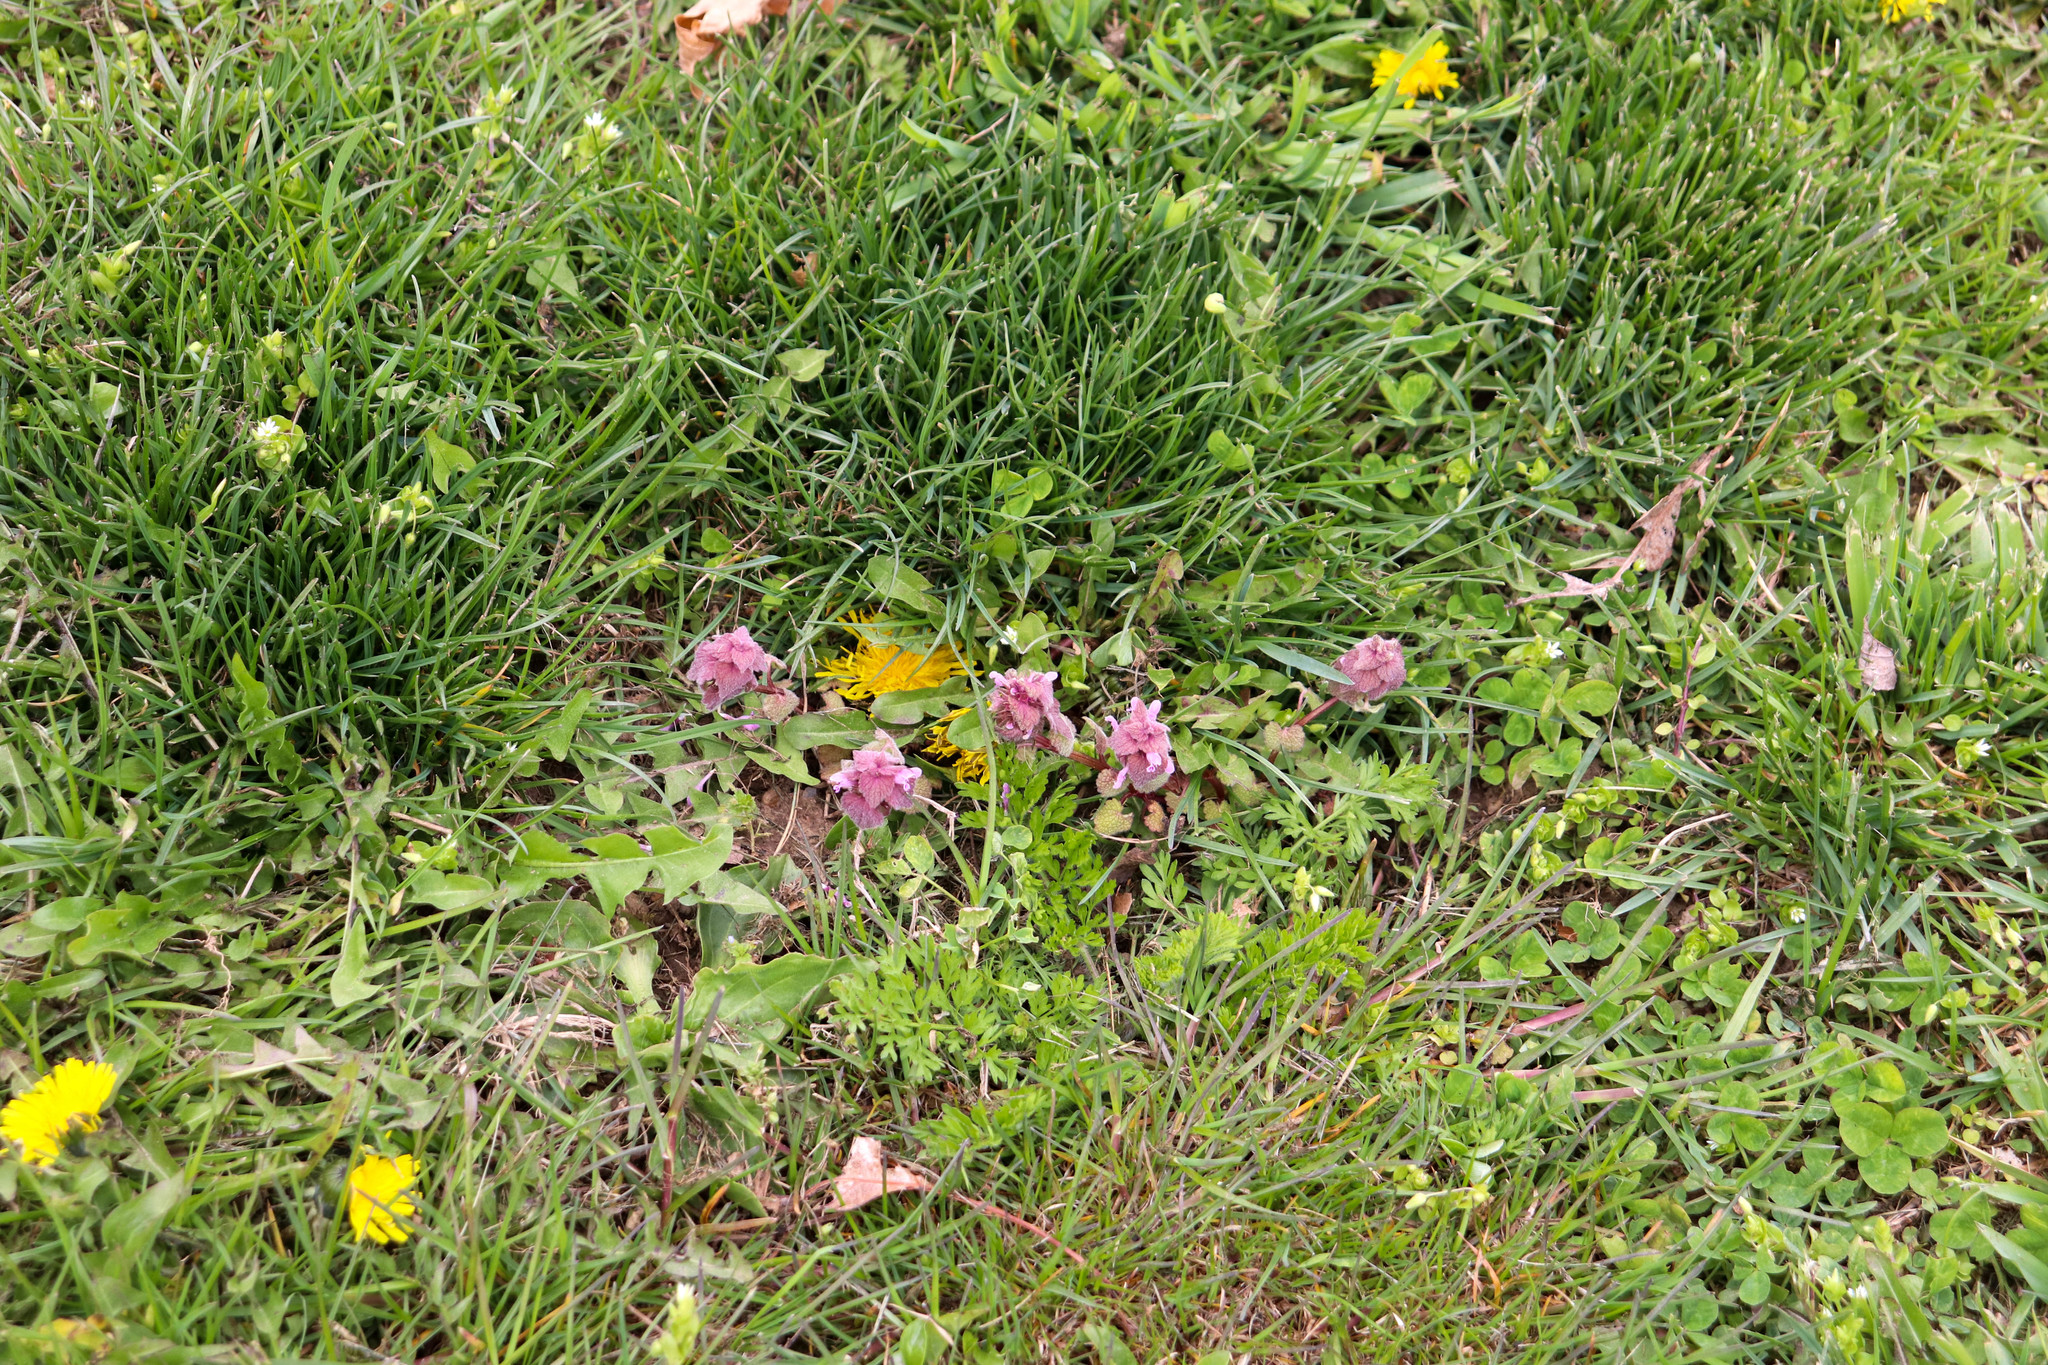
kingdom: Plantae
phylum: Tracheophyta
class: Magnoliopsida
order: Lamiales
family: Lamiaceae
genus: Lamium
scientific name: Lamium purpureum
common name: Red dead-nettle
